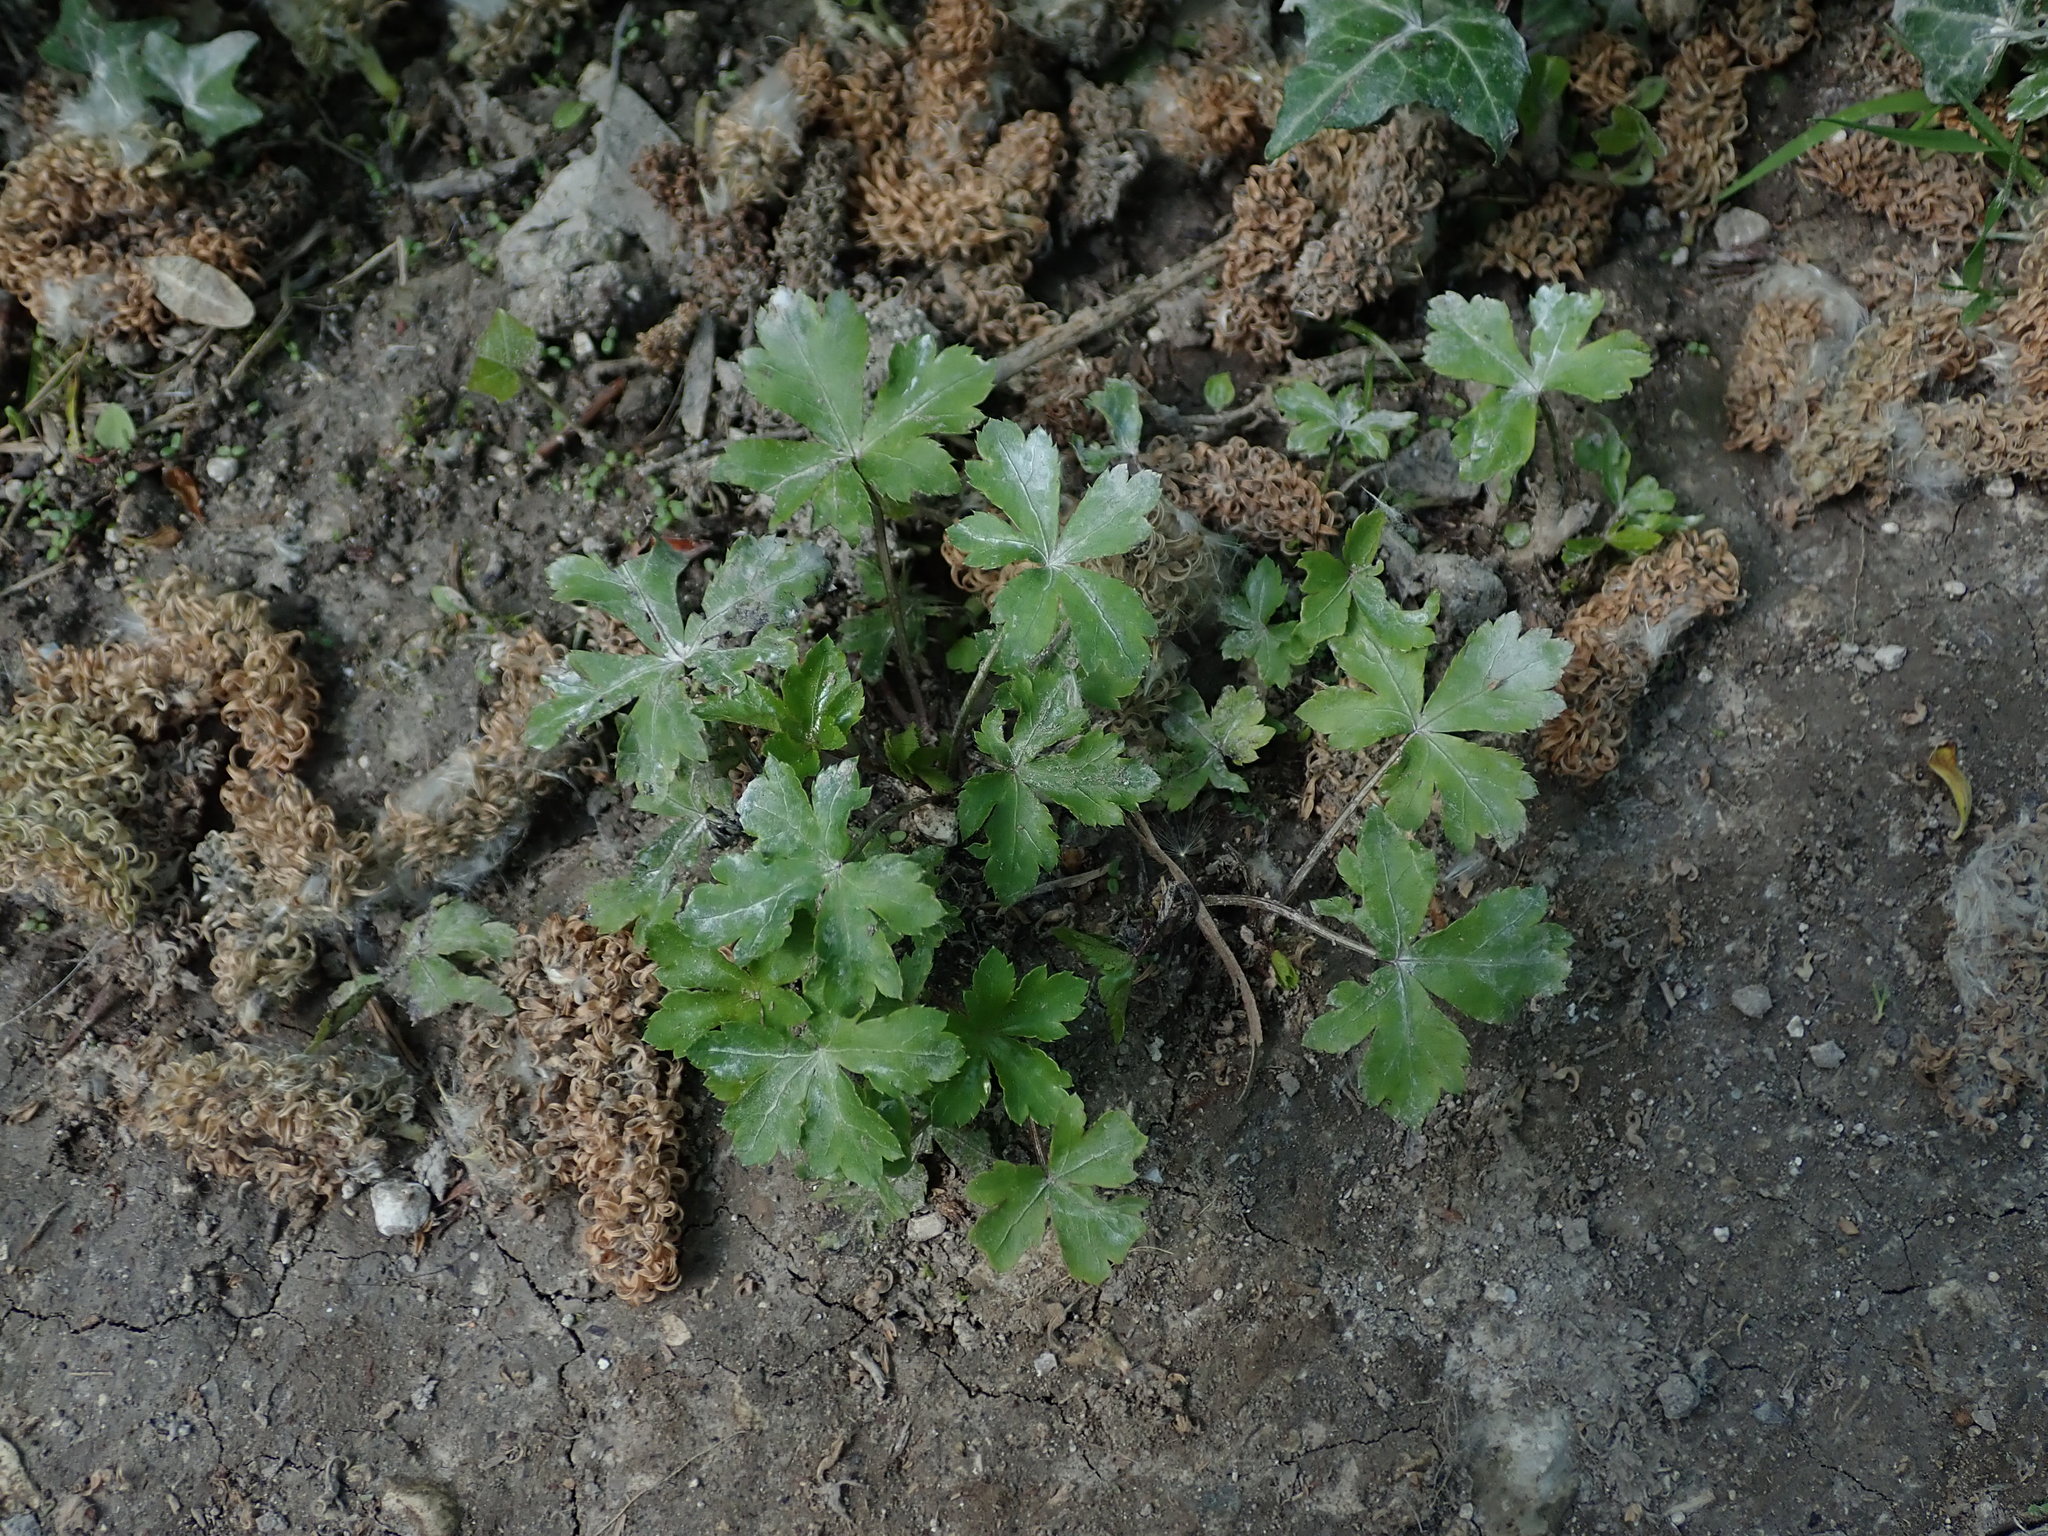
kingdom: Plantae
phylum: Tracheophyta
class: Magnoliopsida
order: Apiales
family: Apiaceae
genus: Sanicula
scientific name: Sanicula europaea
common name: Sanicle
